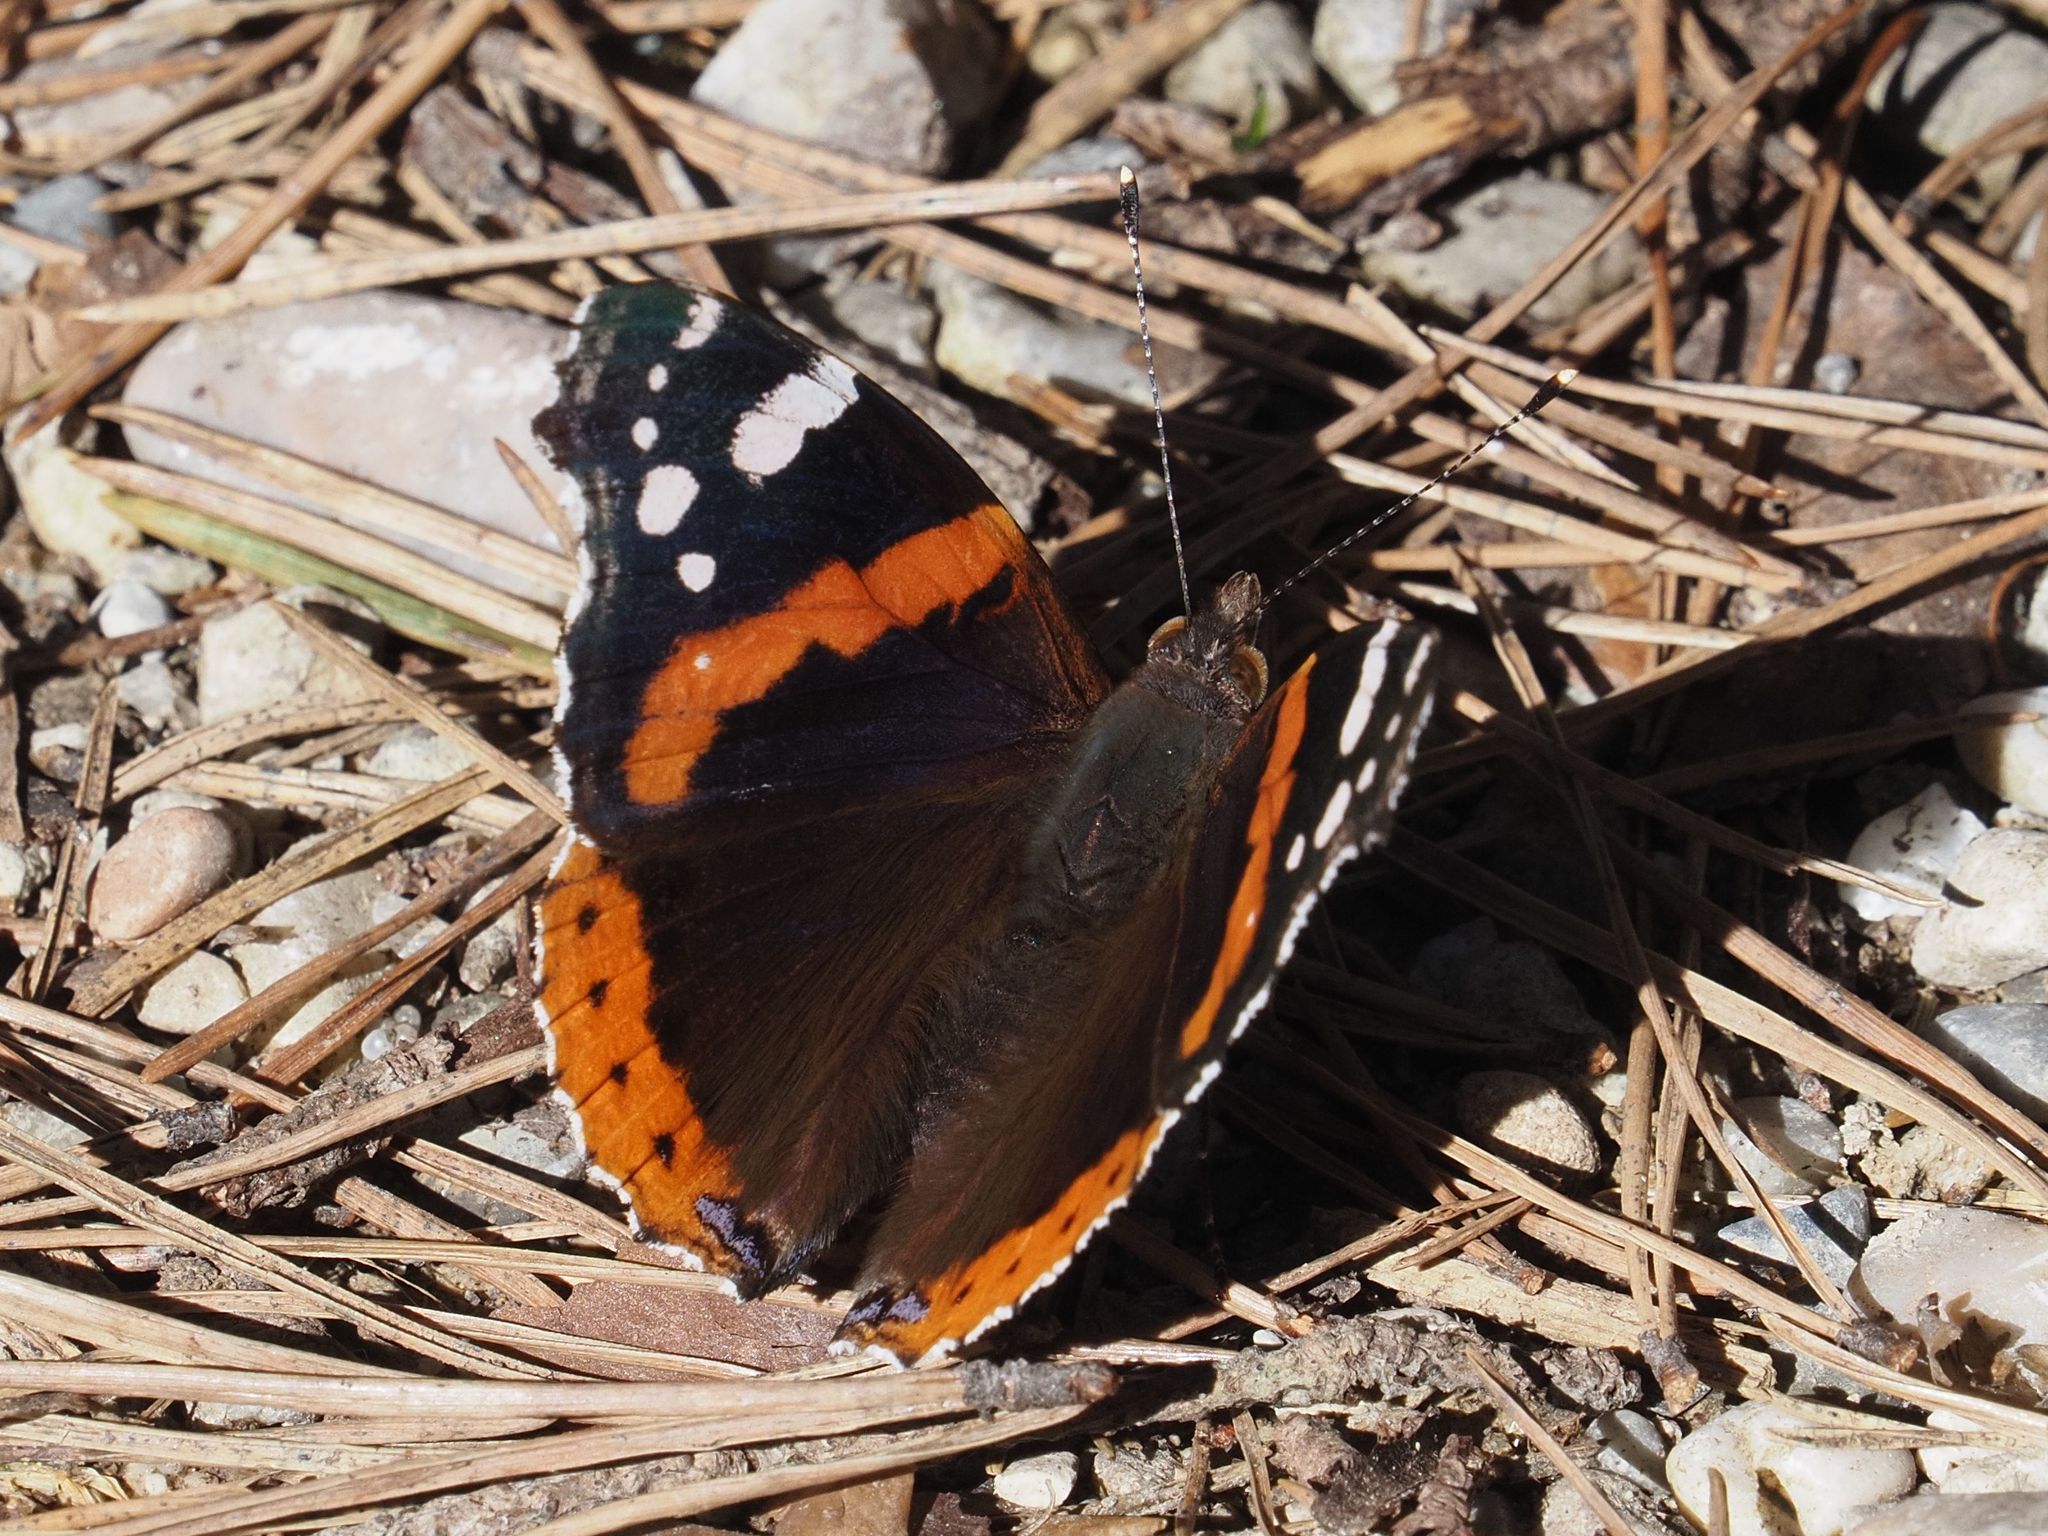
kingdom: Animalia
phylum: Arthropoda
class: Insecta
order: Lepidoptera
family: Nymphalidae
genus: Vanessa
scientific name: Vanessa atalanta
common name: Red admiral
